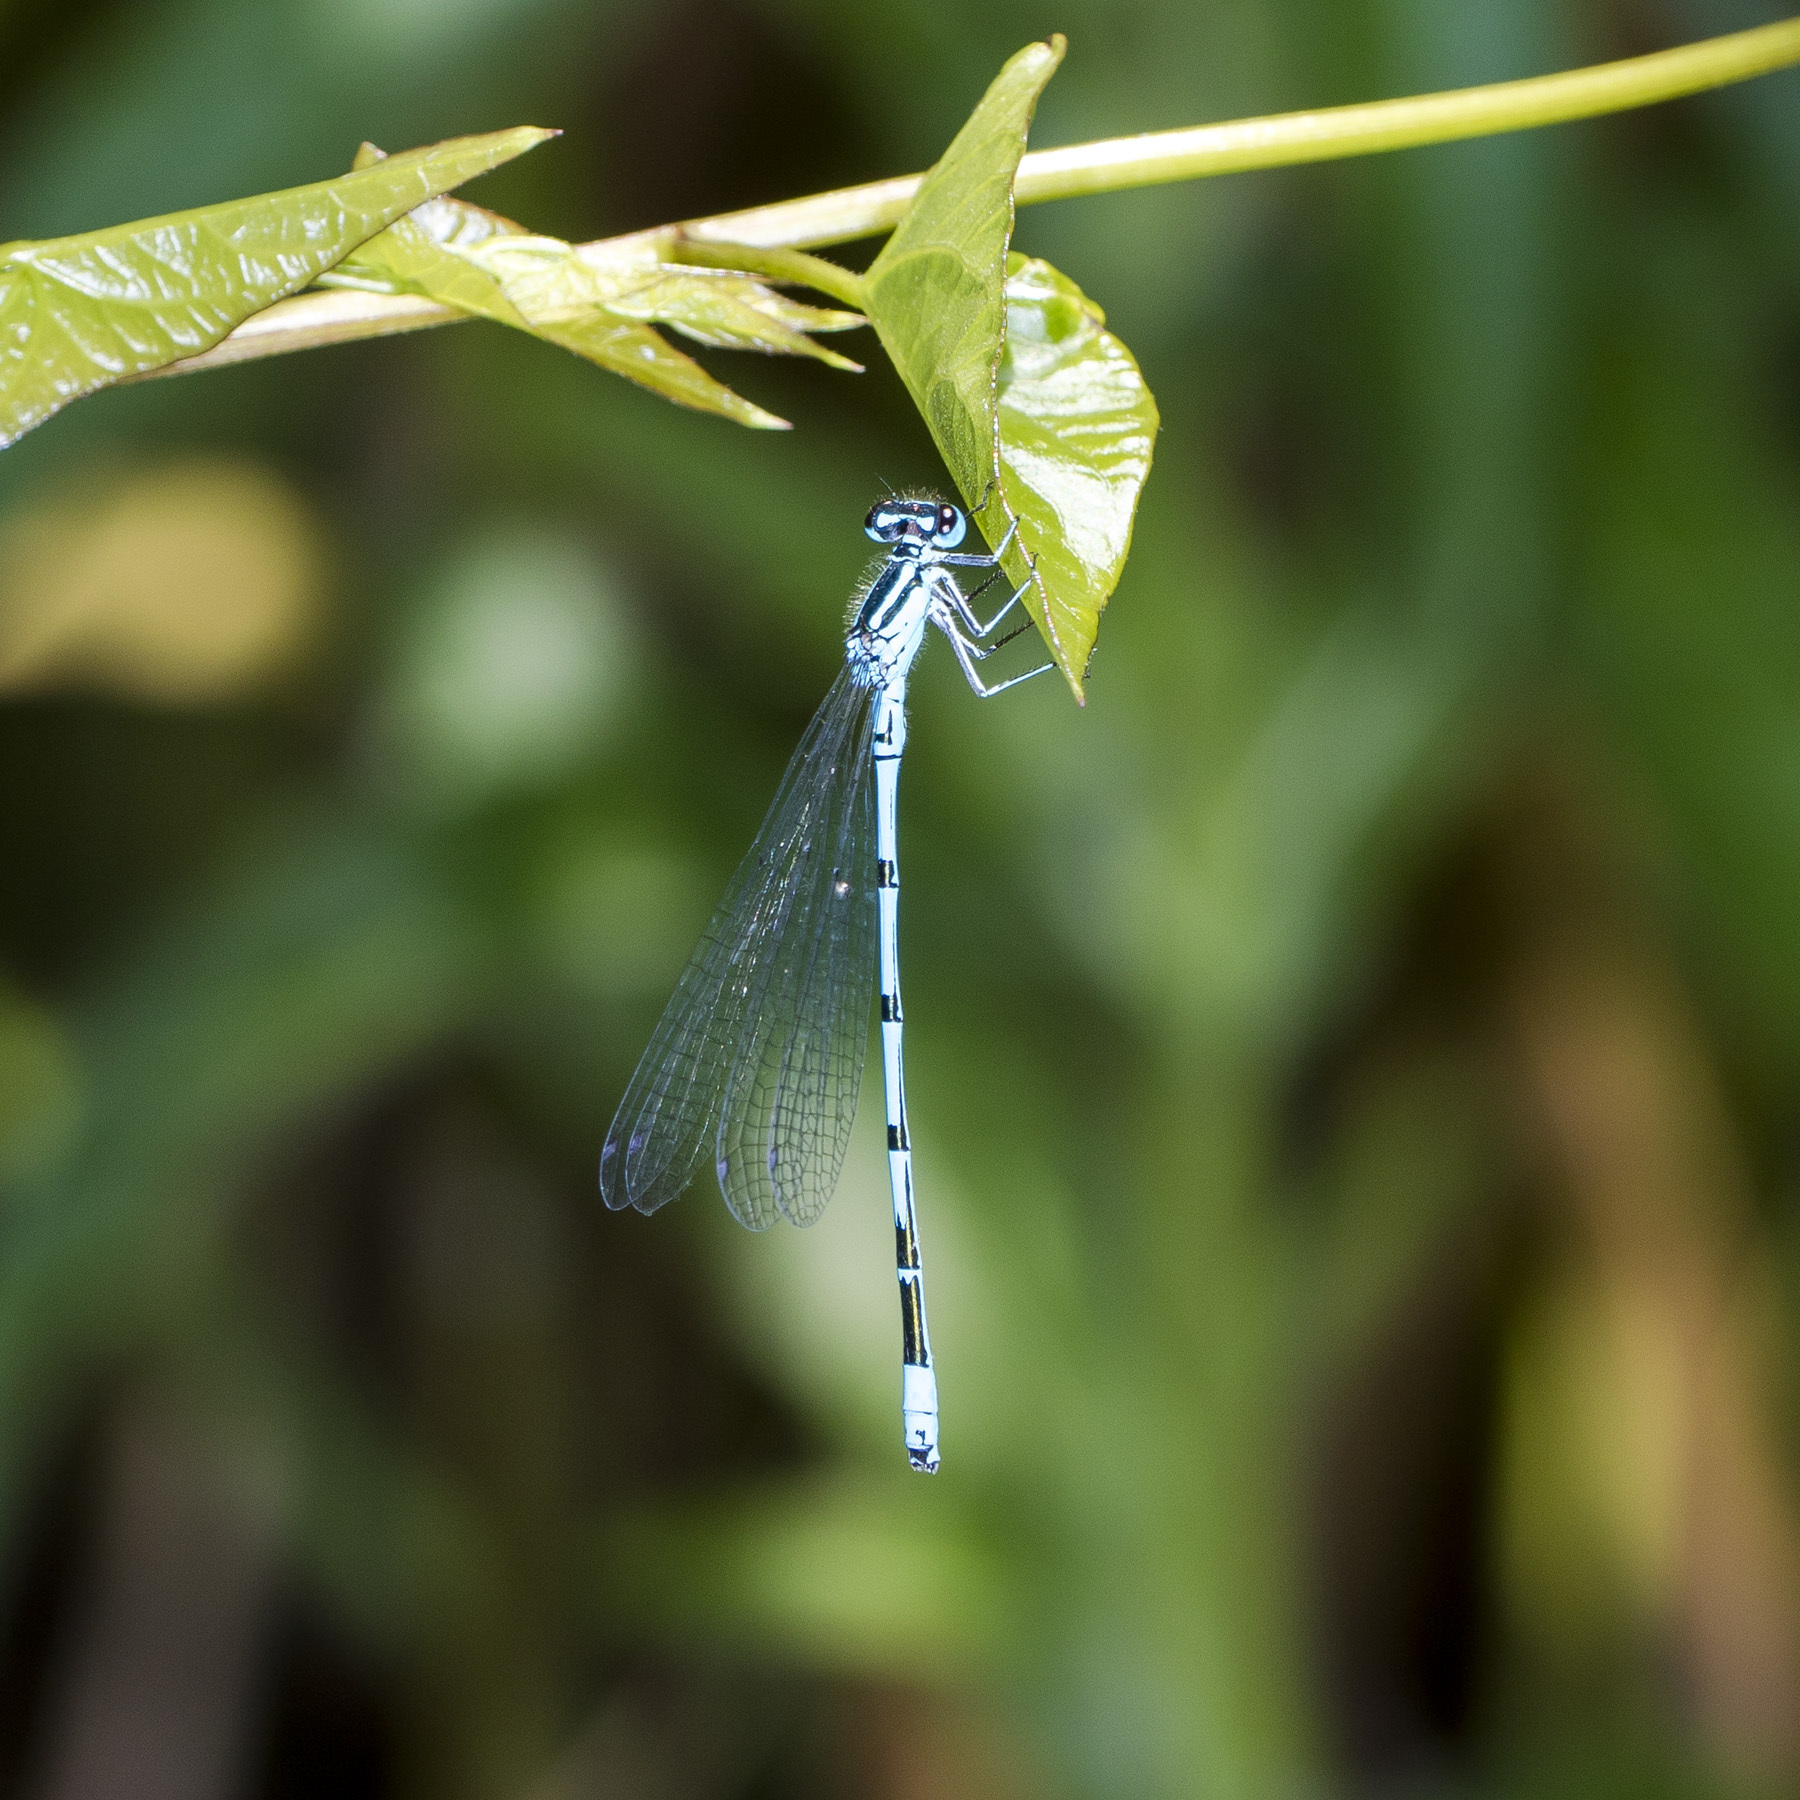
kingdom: Animalia
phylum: Arthropoda
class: Insecta
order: Odonata
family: Coenagrionidae
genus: Coenagrion
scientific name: Coenagrion puella
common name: Azure damselfly
